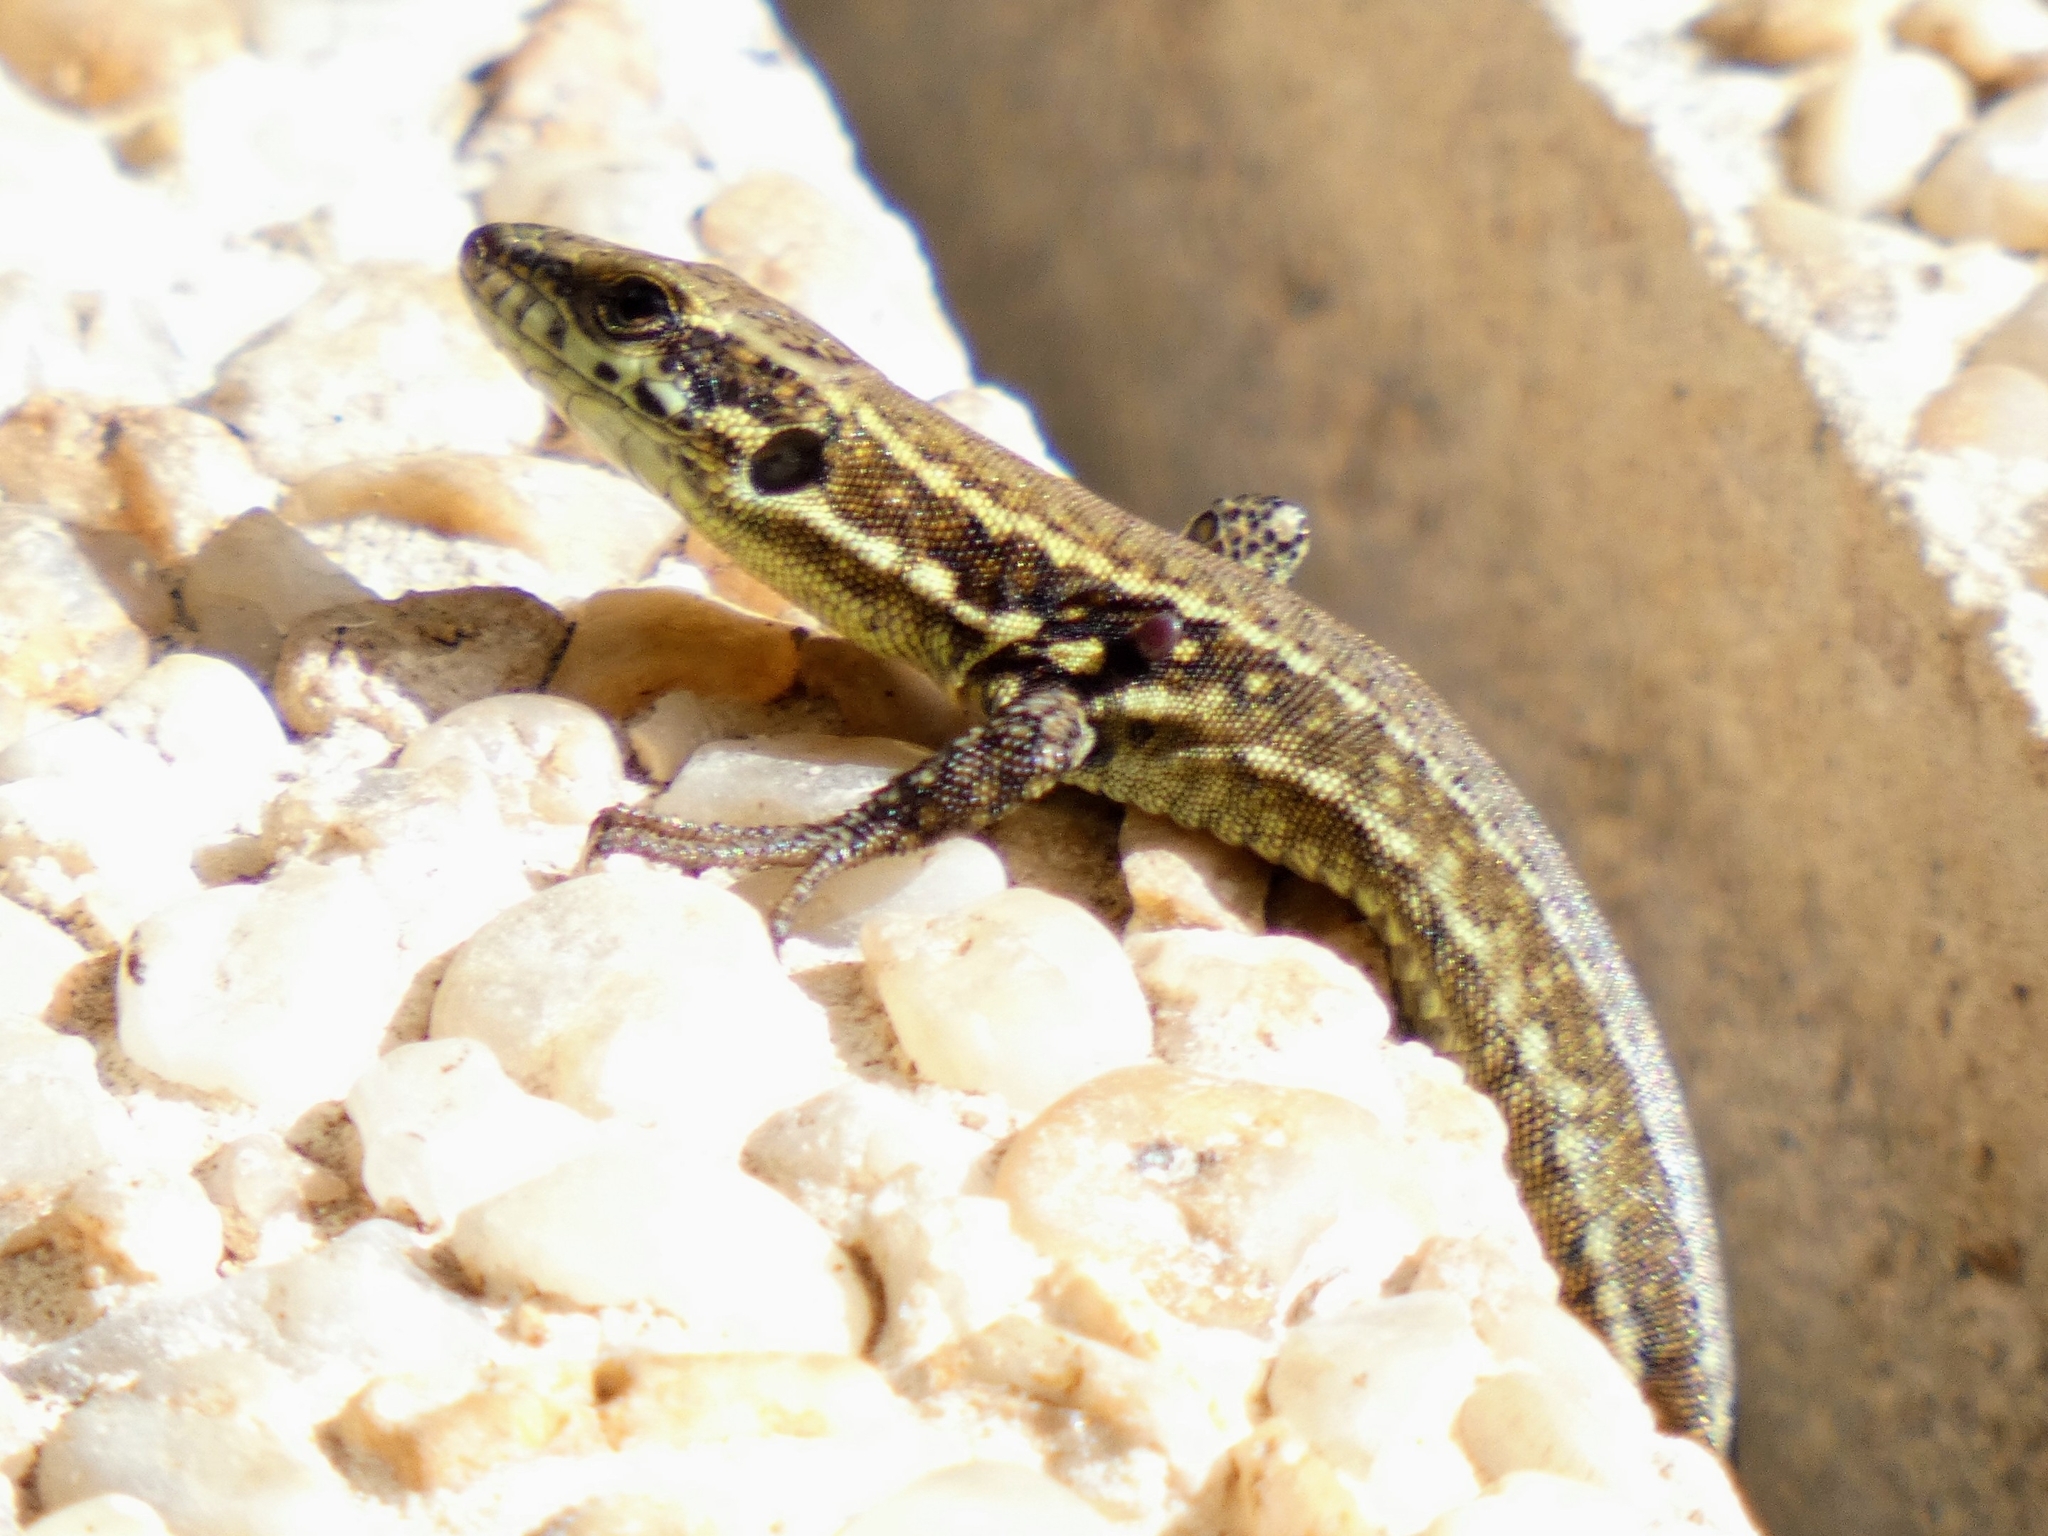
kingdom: Animalia
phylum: Chordata
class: Squamata
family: Lacertidae
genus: Podarcis
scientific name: Podarcis muralis
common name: Common wall lizard
